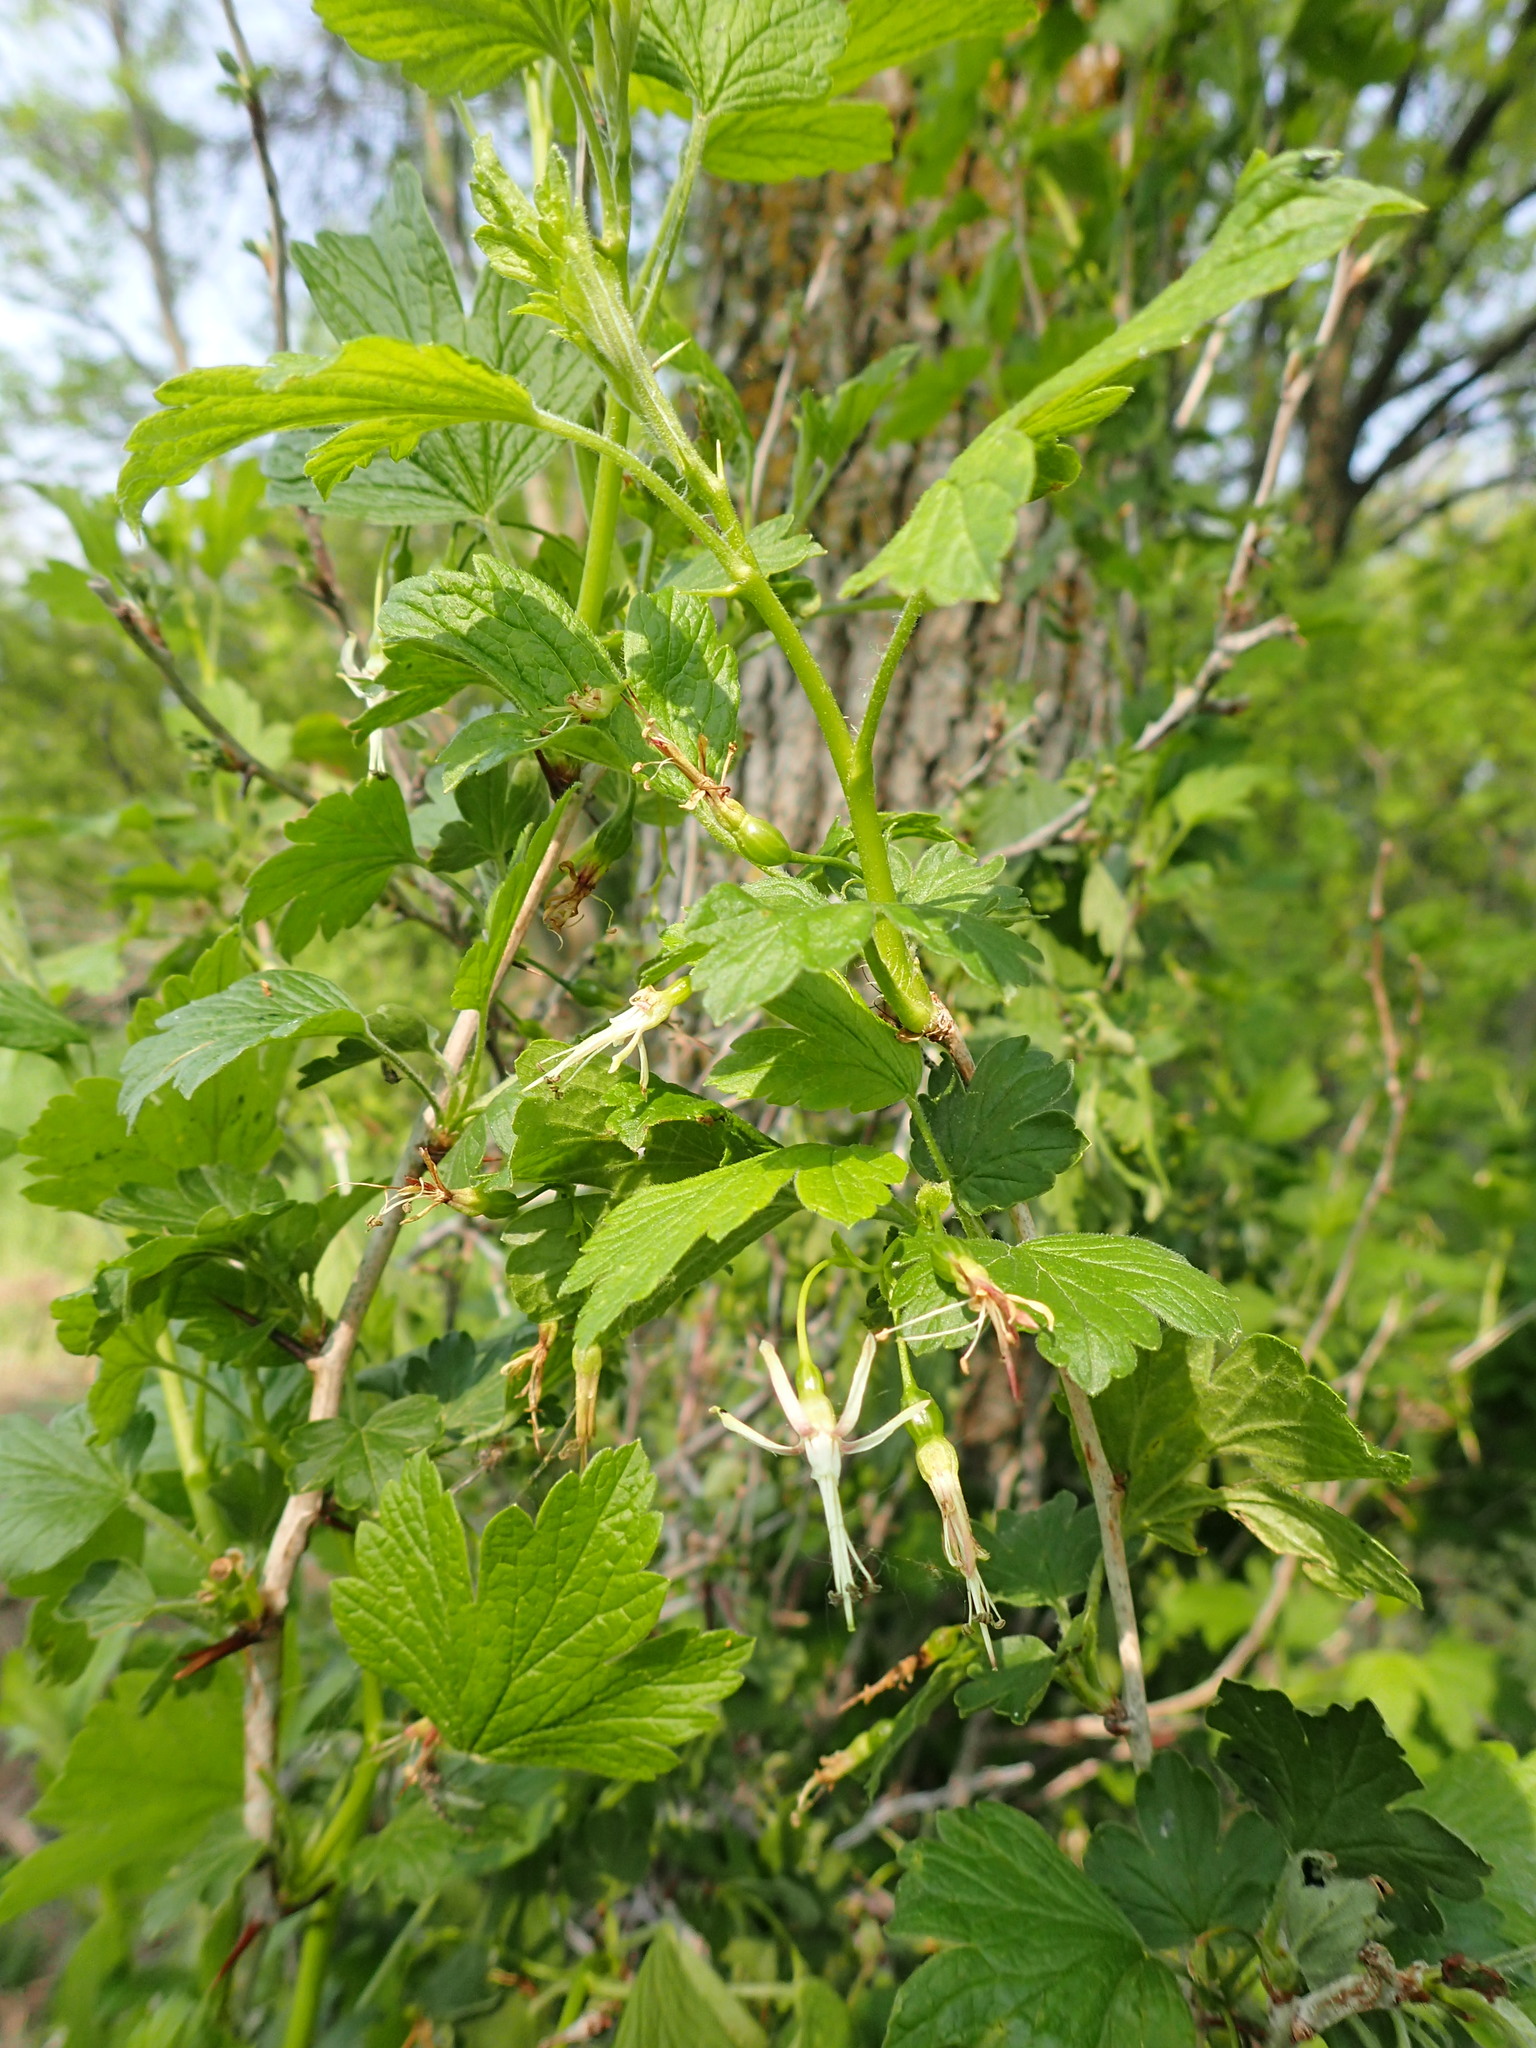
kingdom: Plantae
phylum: Tracheophyta
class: Magnoliopsida
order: Saxifragales
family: Grossulariaceae
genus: Ribes
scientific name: Ribes missouriense
